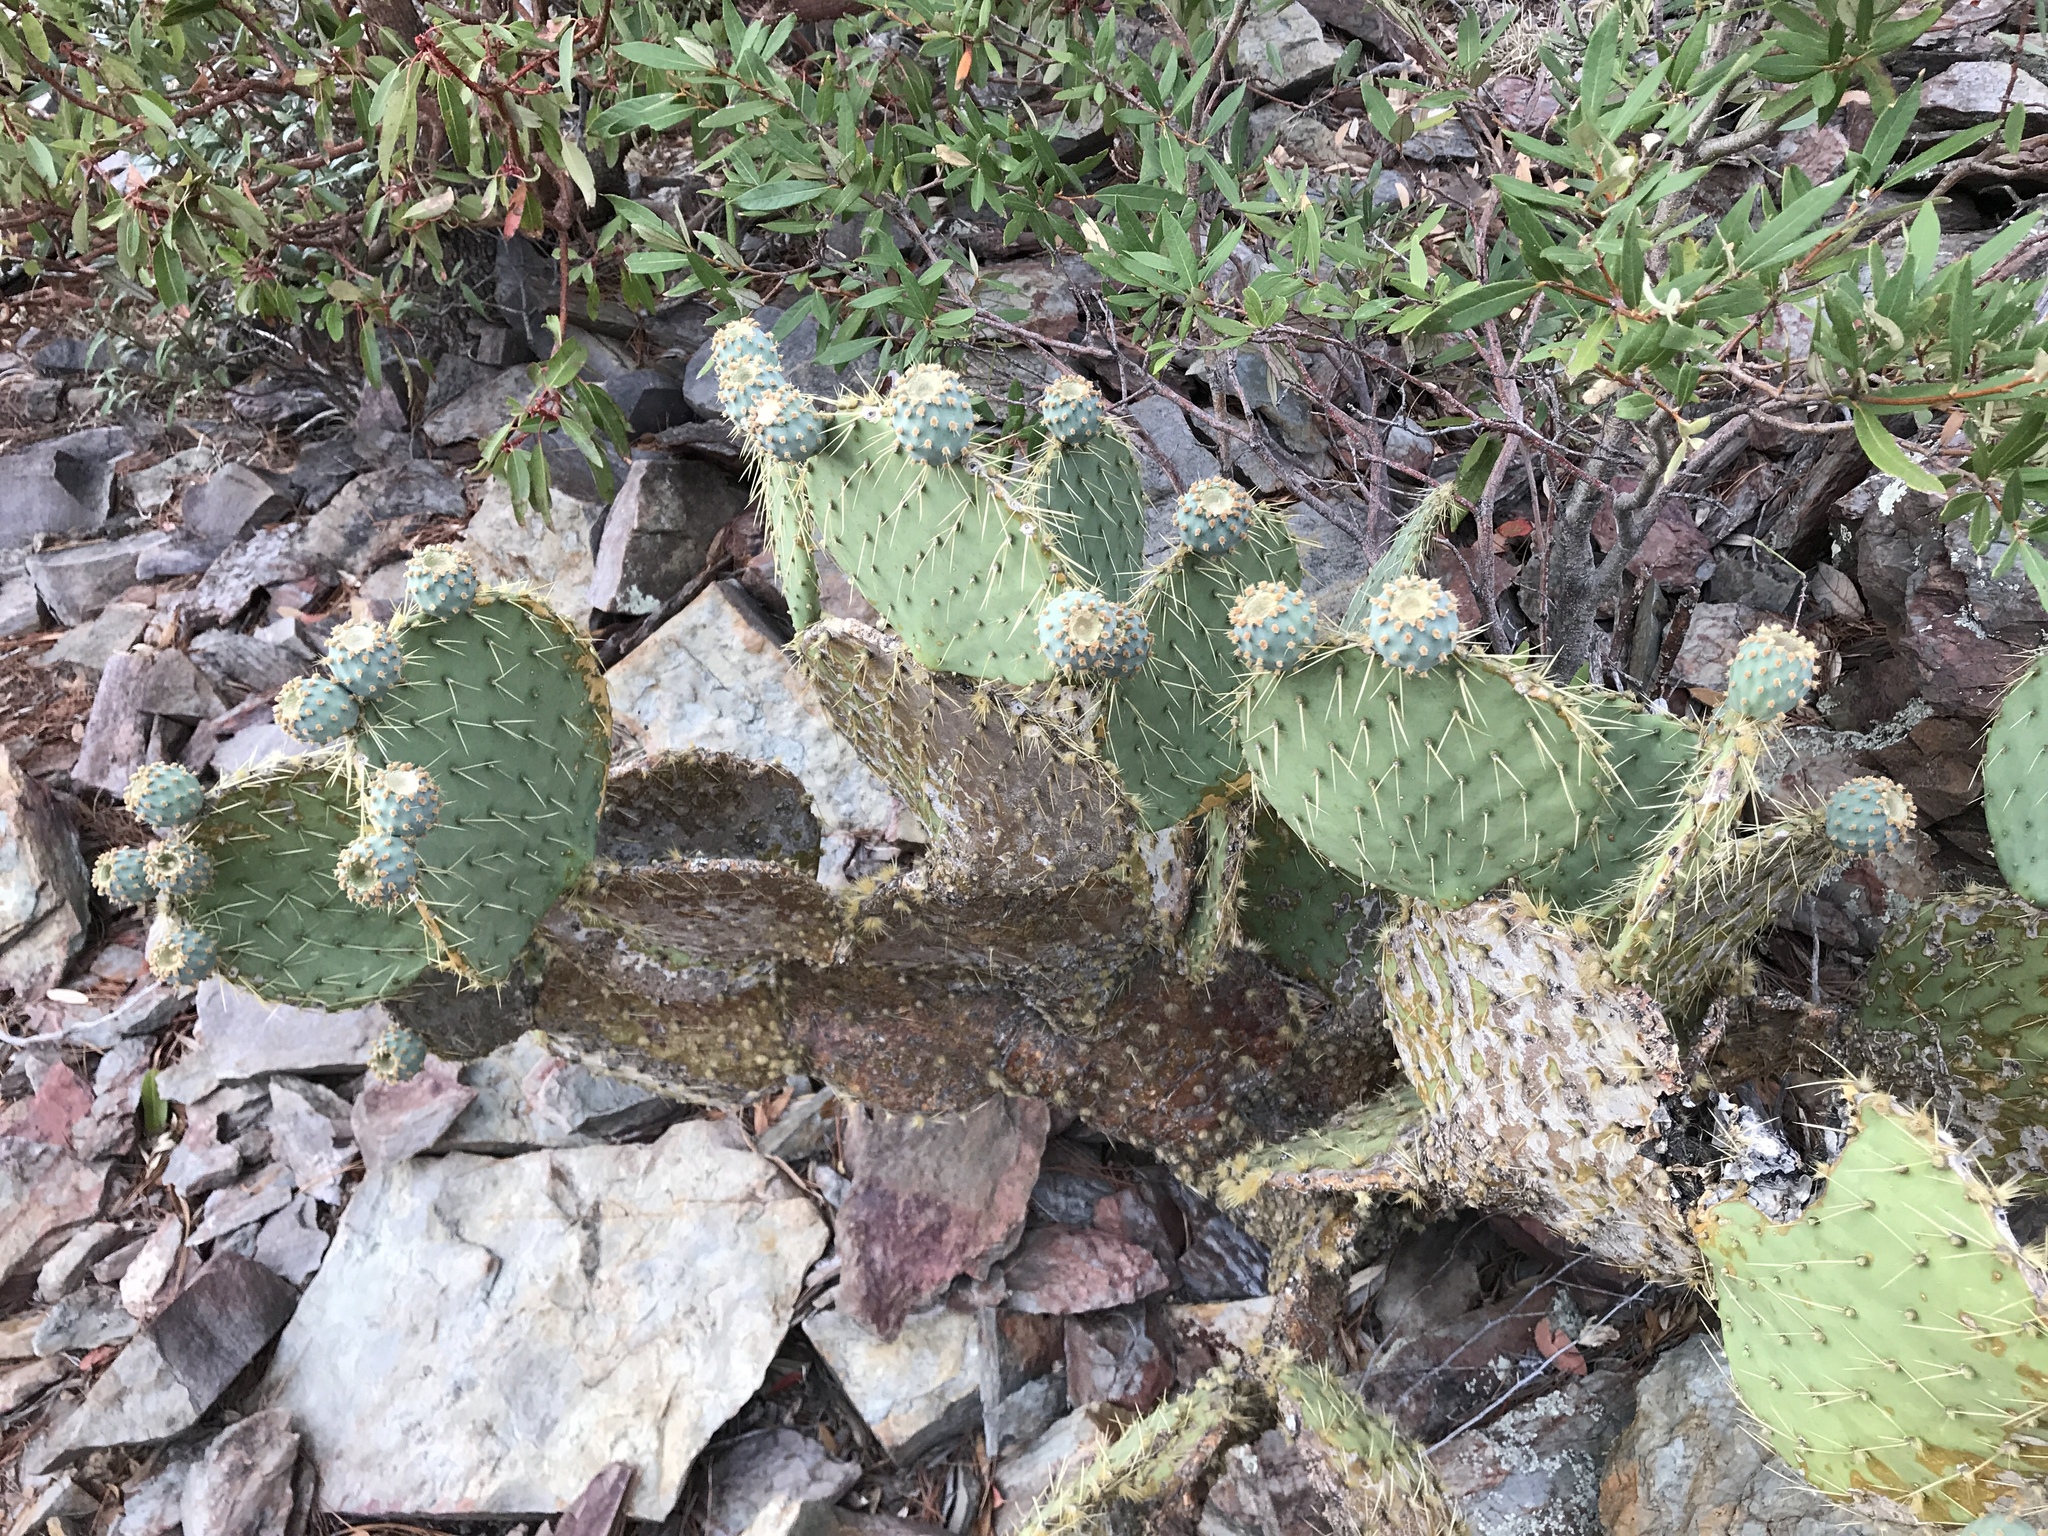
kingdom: Plantae
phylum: Tracheophyta
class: Magnoliopsida
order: Caryophyllales
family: Cactaceae
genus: Opuntia
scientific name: Opuntia chlorotica
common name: Dollar-joint prickly-pear
